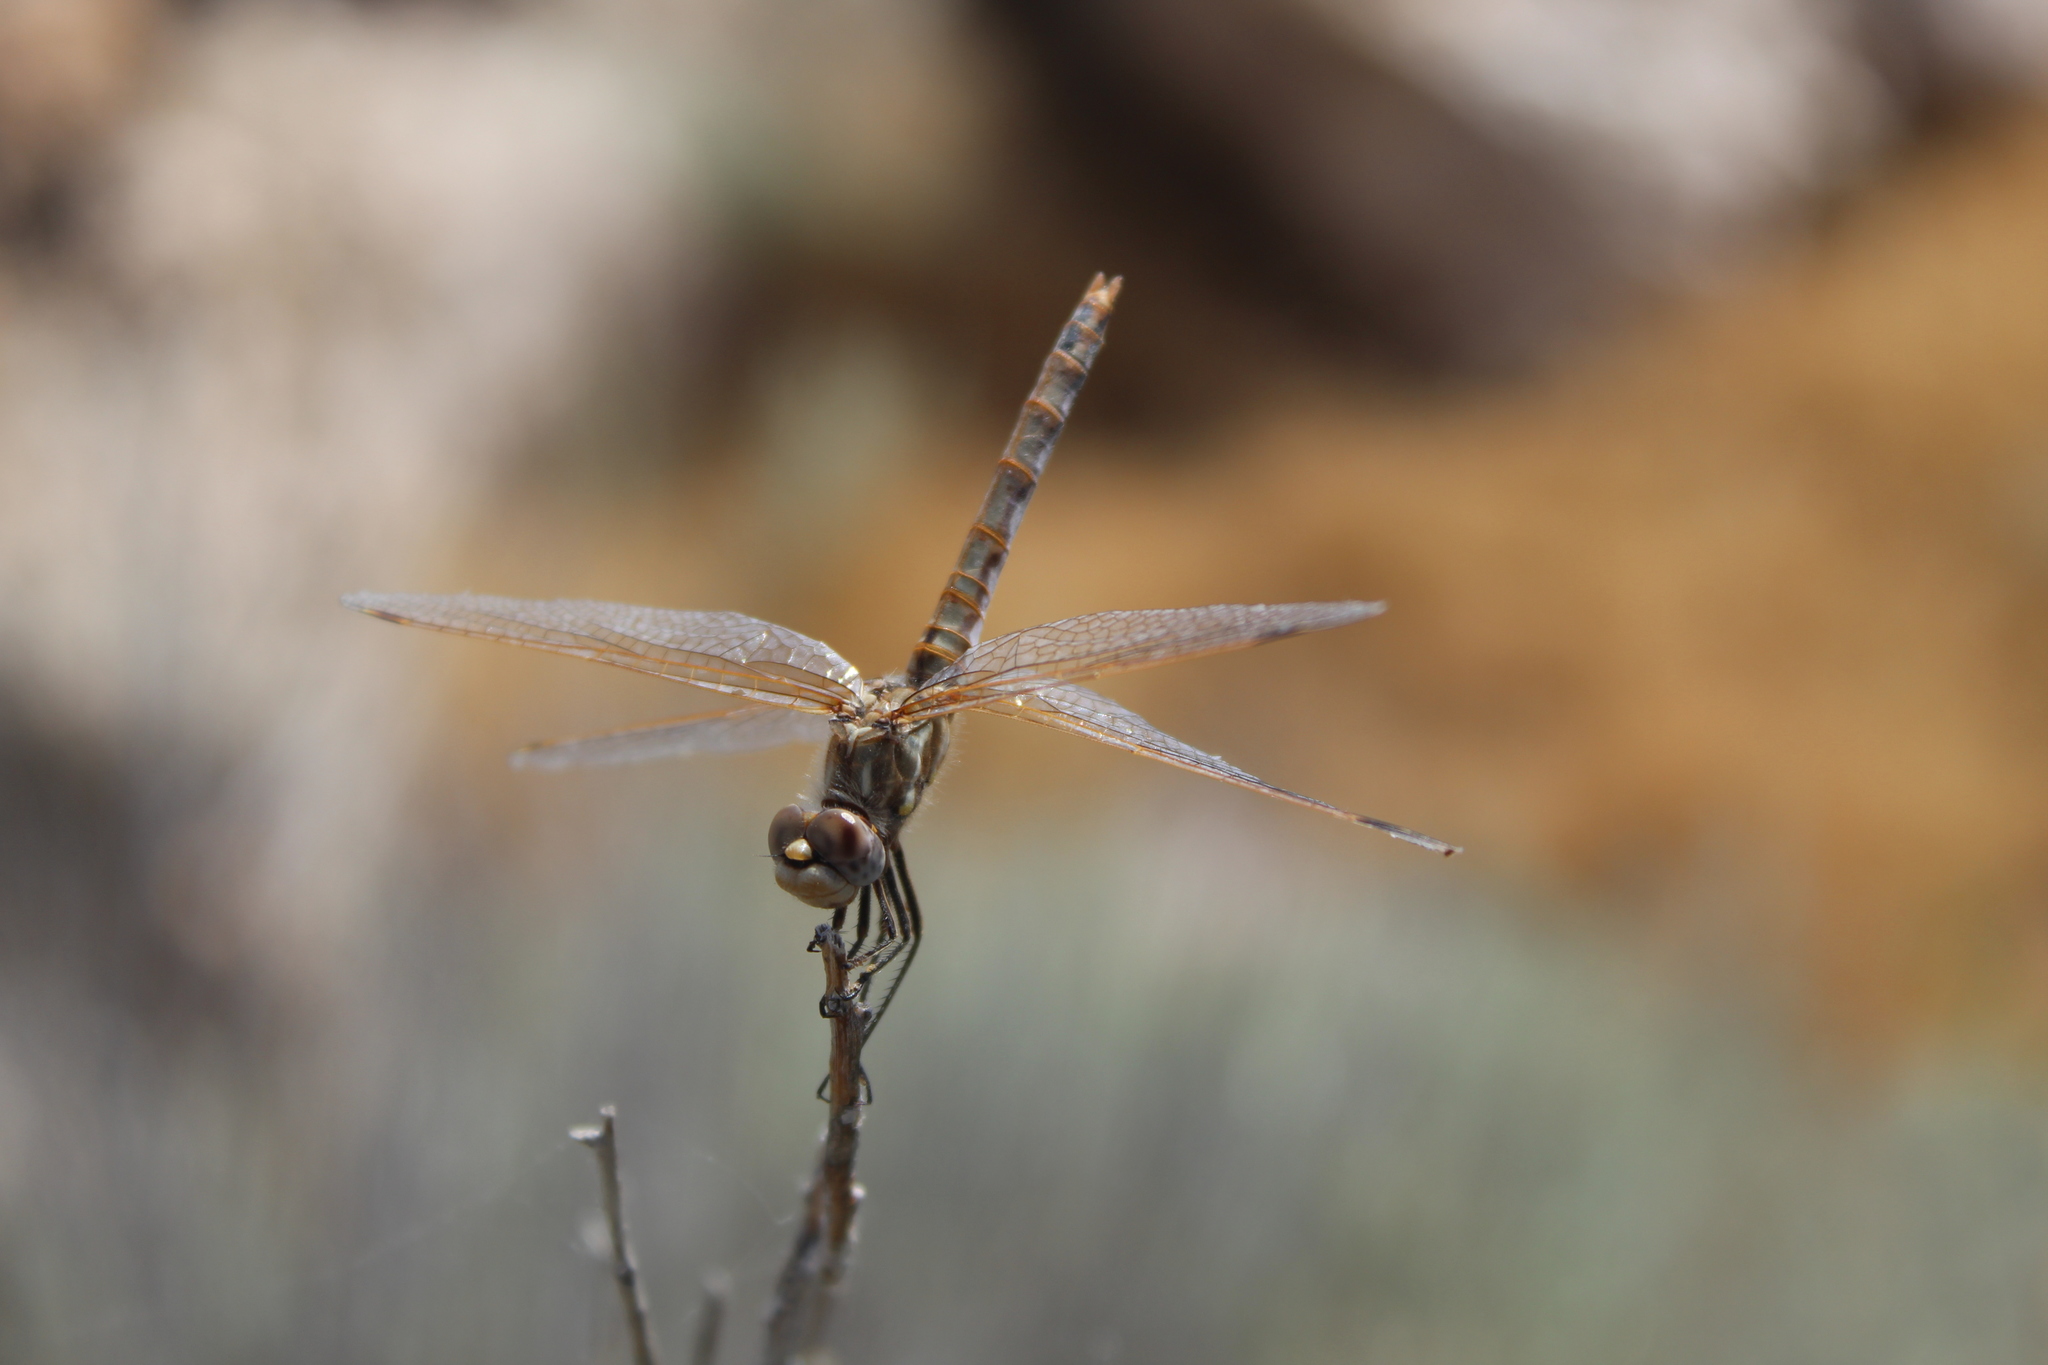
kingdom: Animalia
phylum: Arthropoda
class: Insecta
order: Odonata
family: Libellulidae
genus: Sympetrum
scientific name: Sympetrum corruptum
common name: Variegated meadowhawk
